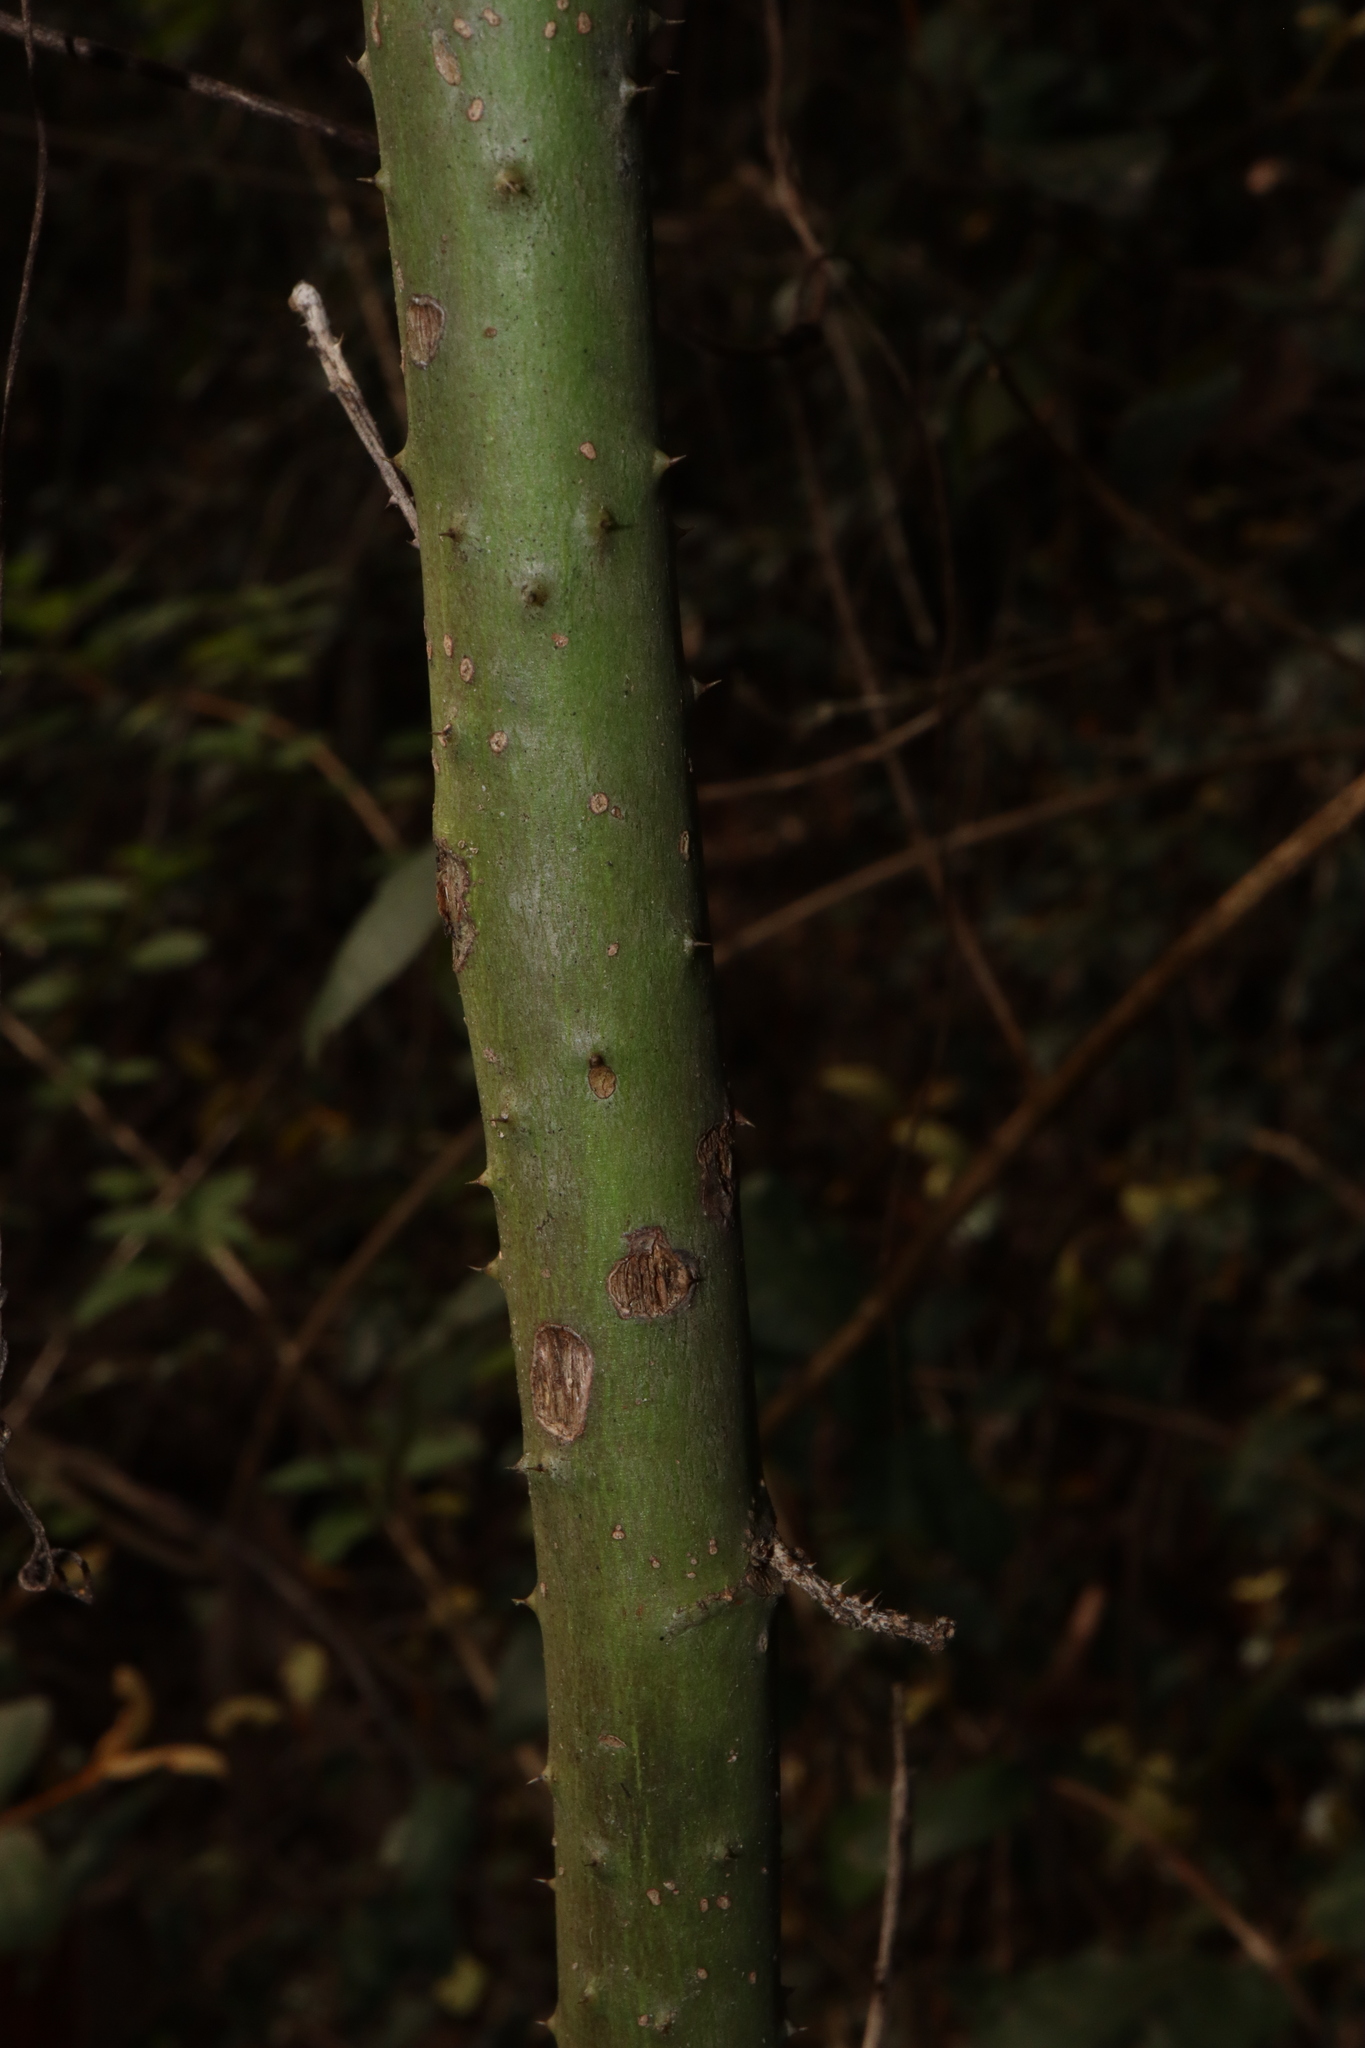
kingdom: Plantae
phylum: Tracheophyta
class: Magnoliopsida
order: Malvales
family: Malvaceae
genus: Hibiscus
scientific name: Hibiscus heterophyllus
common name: Queensland-sorrel
